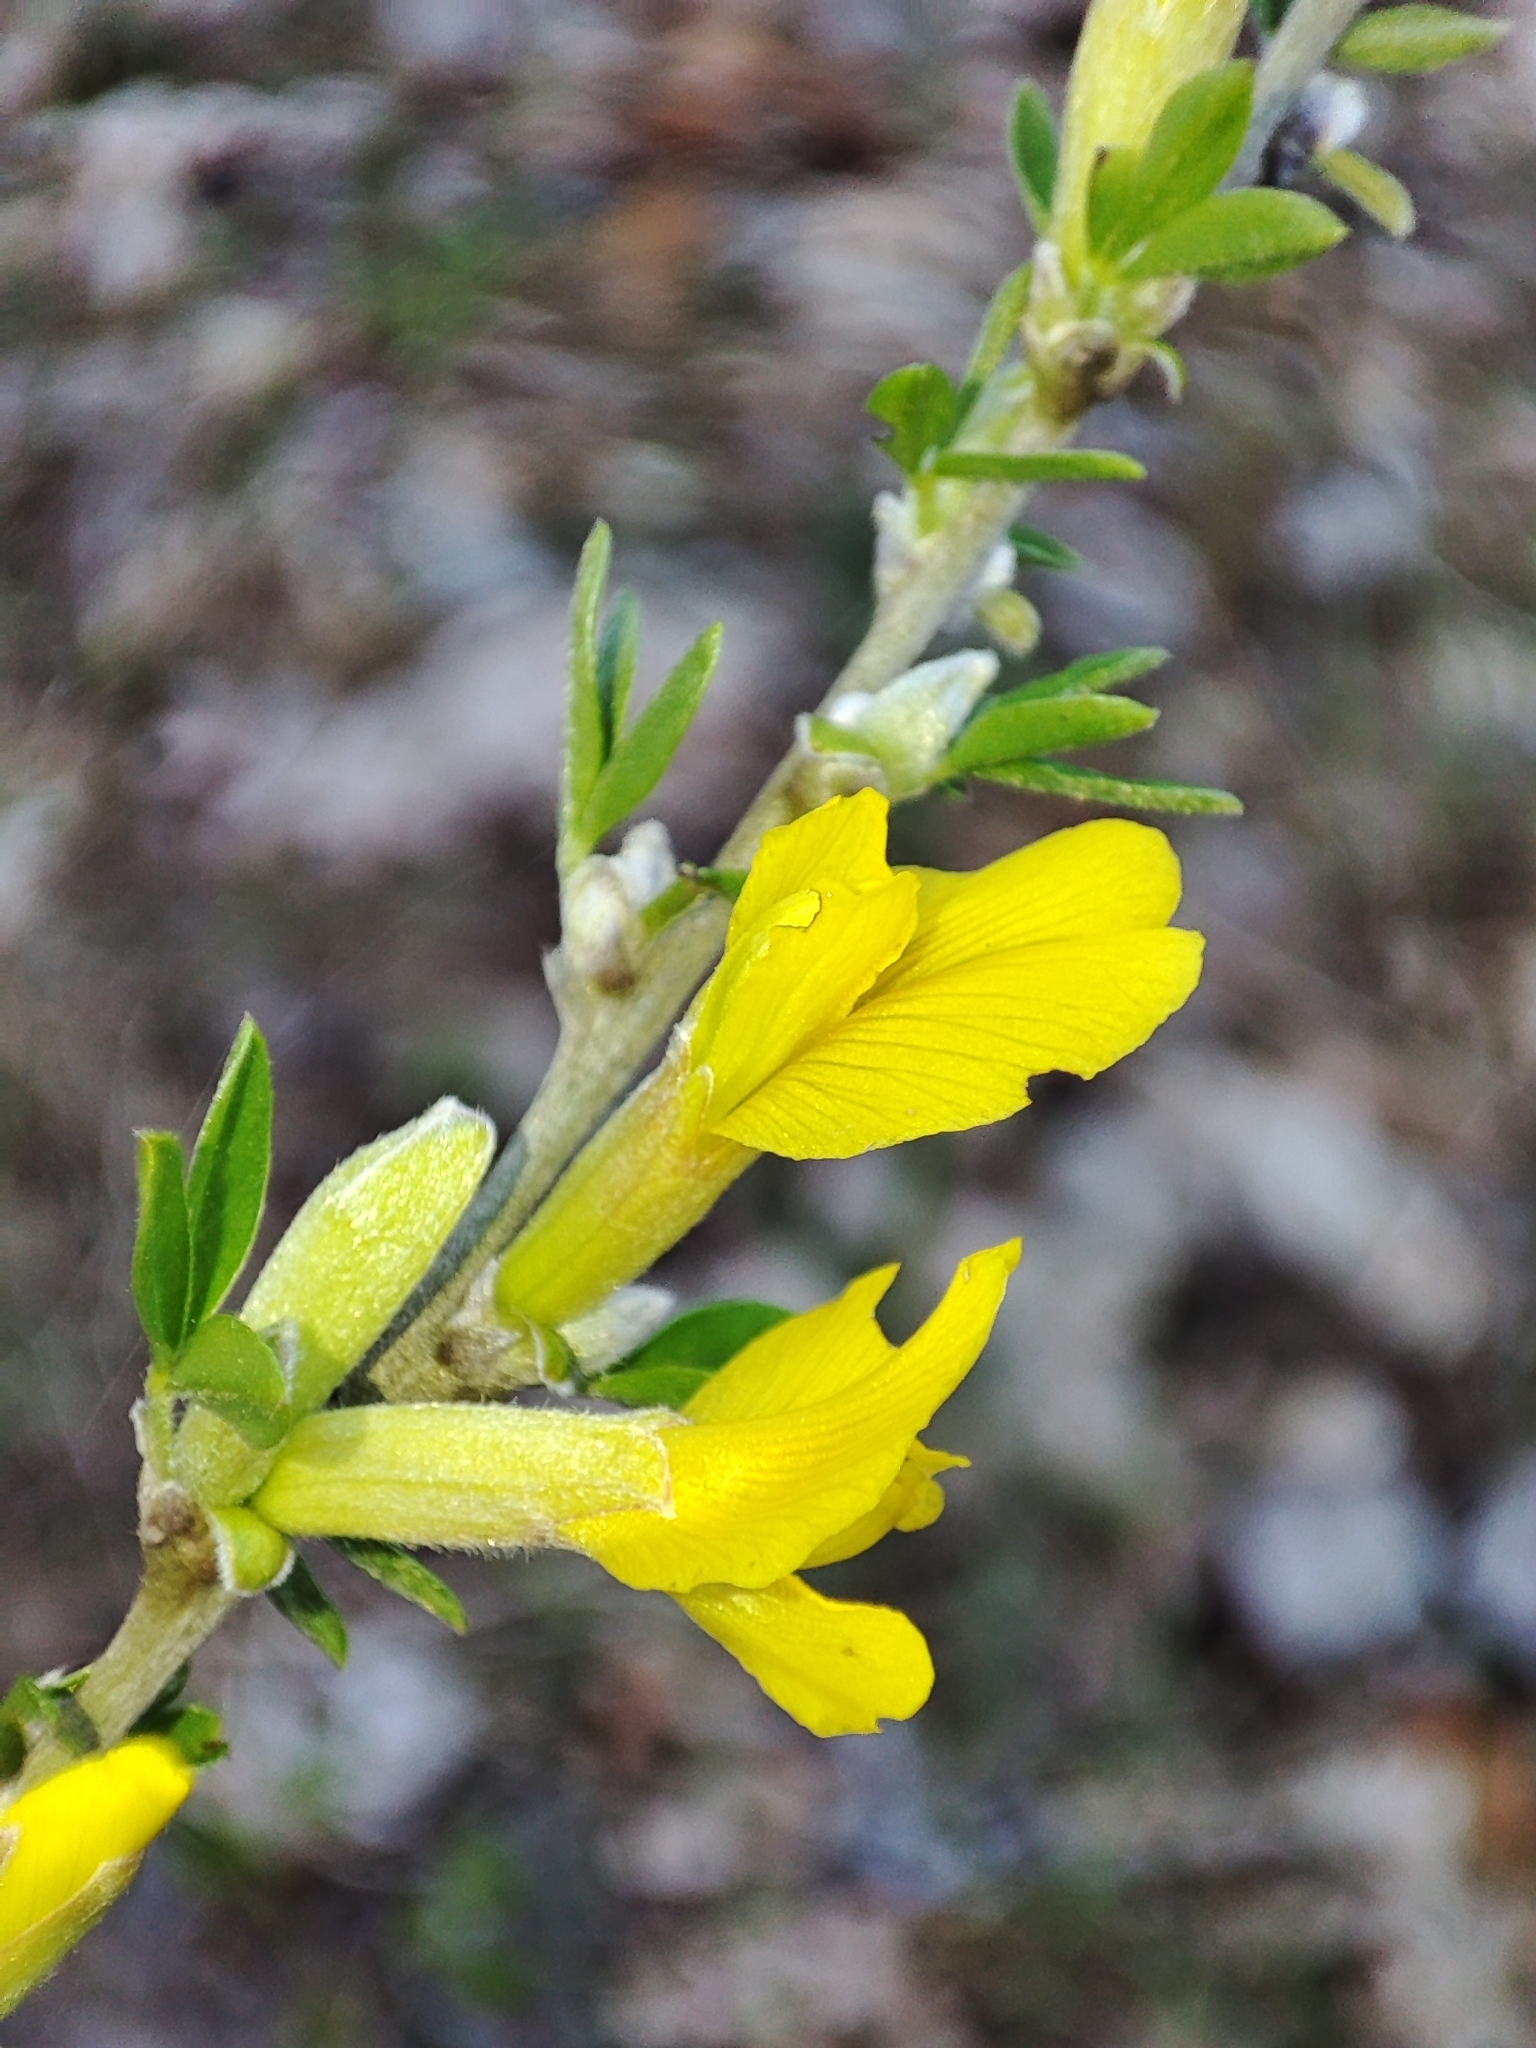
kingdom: Plantae
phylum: Tracheophyta
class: Magnoliopsida
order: Fabales
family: Fabaceae
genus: Chamaecytisus
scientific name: Chamaecytisus ruthenicus
